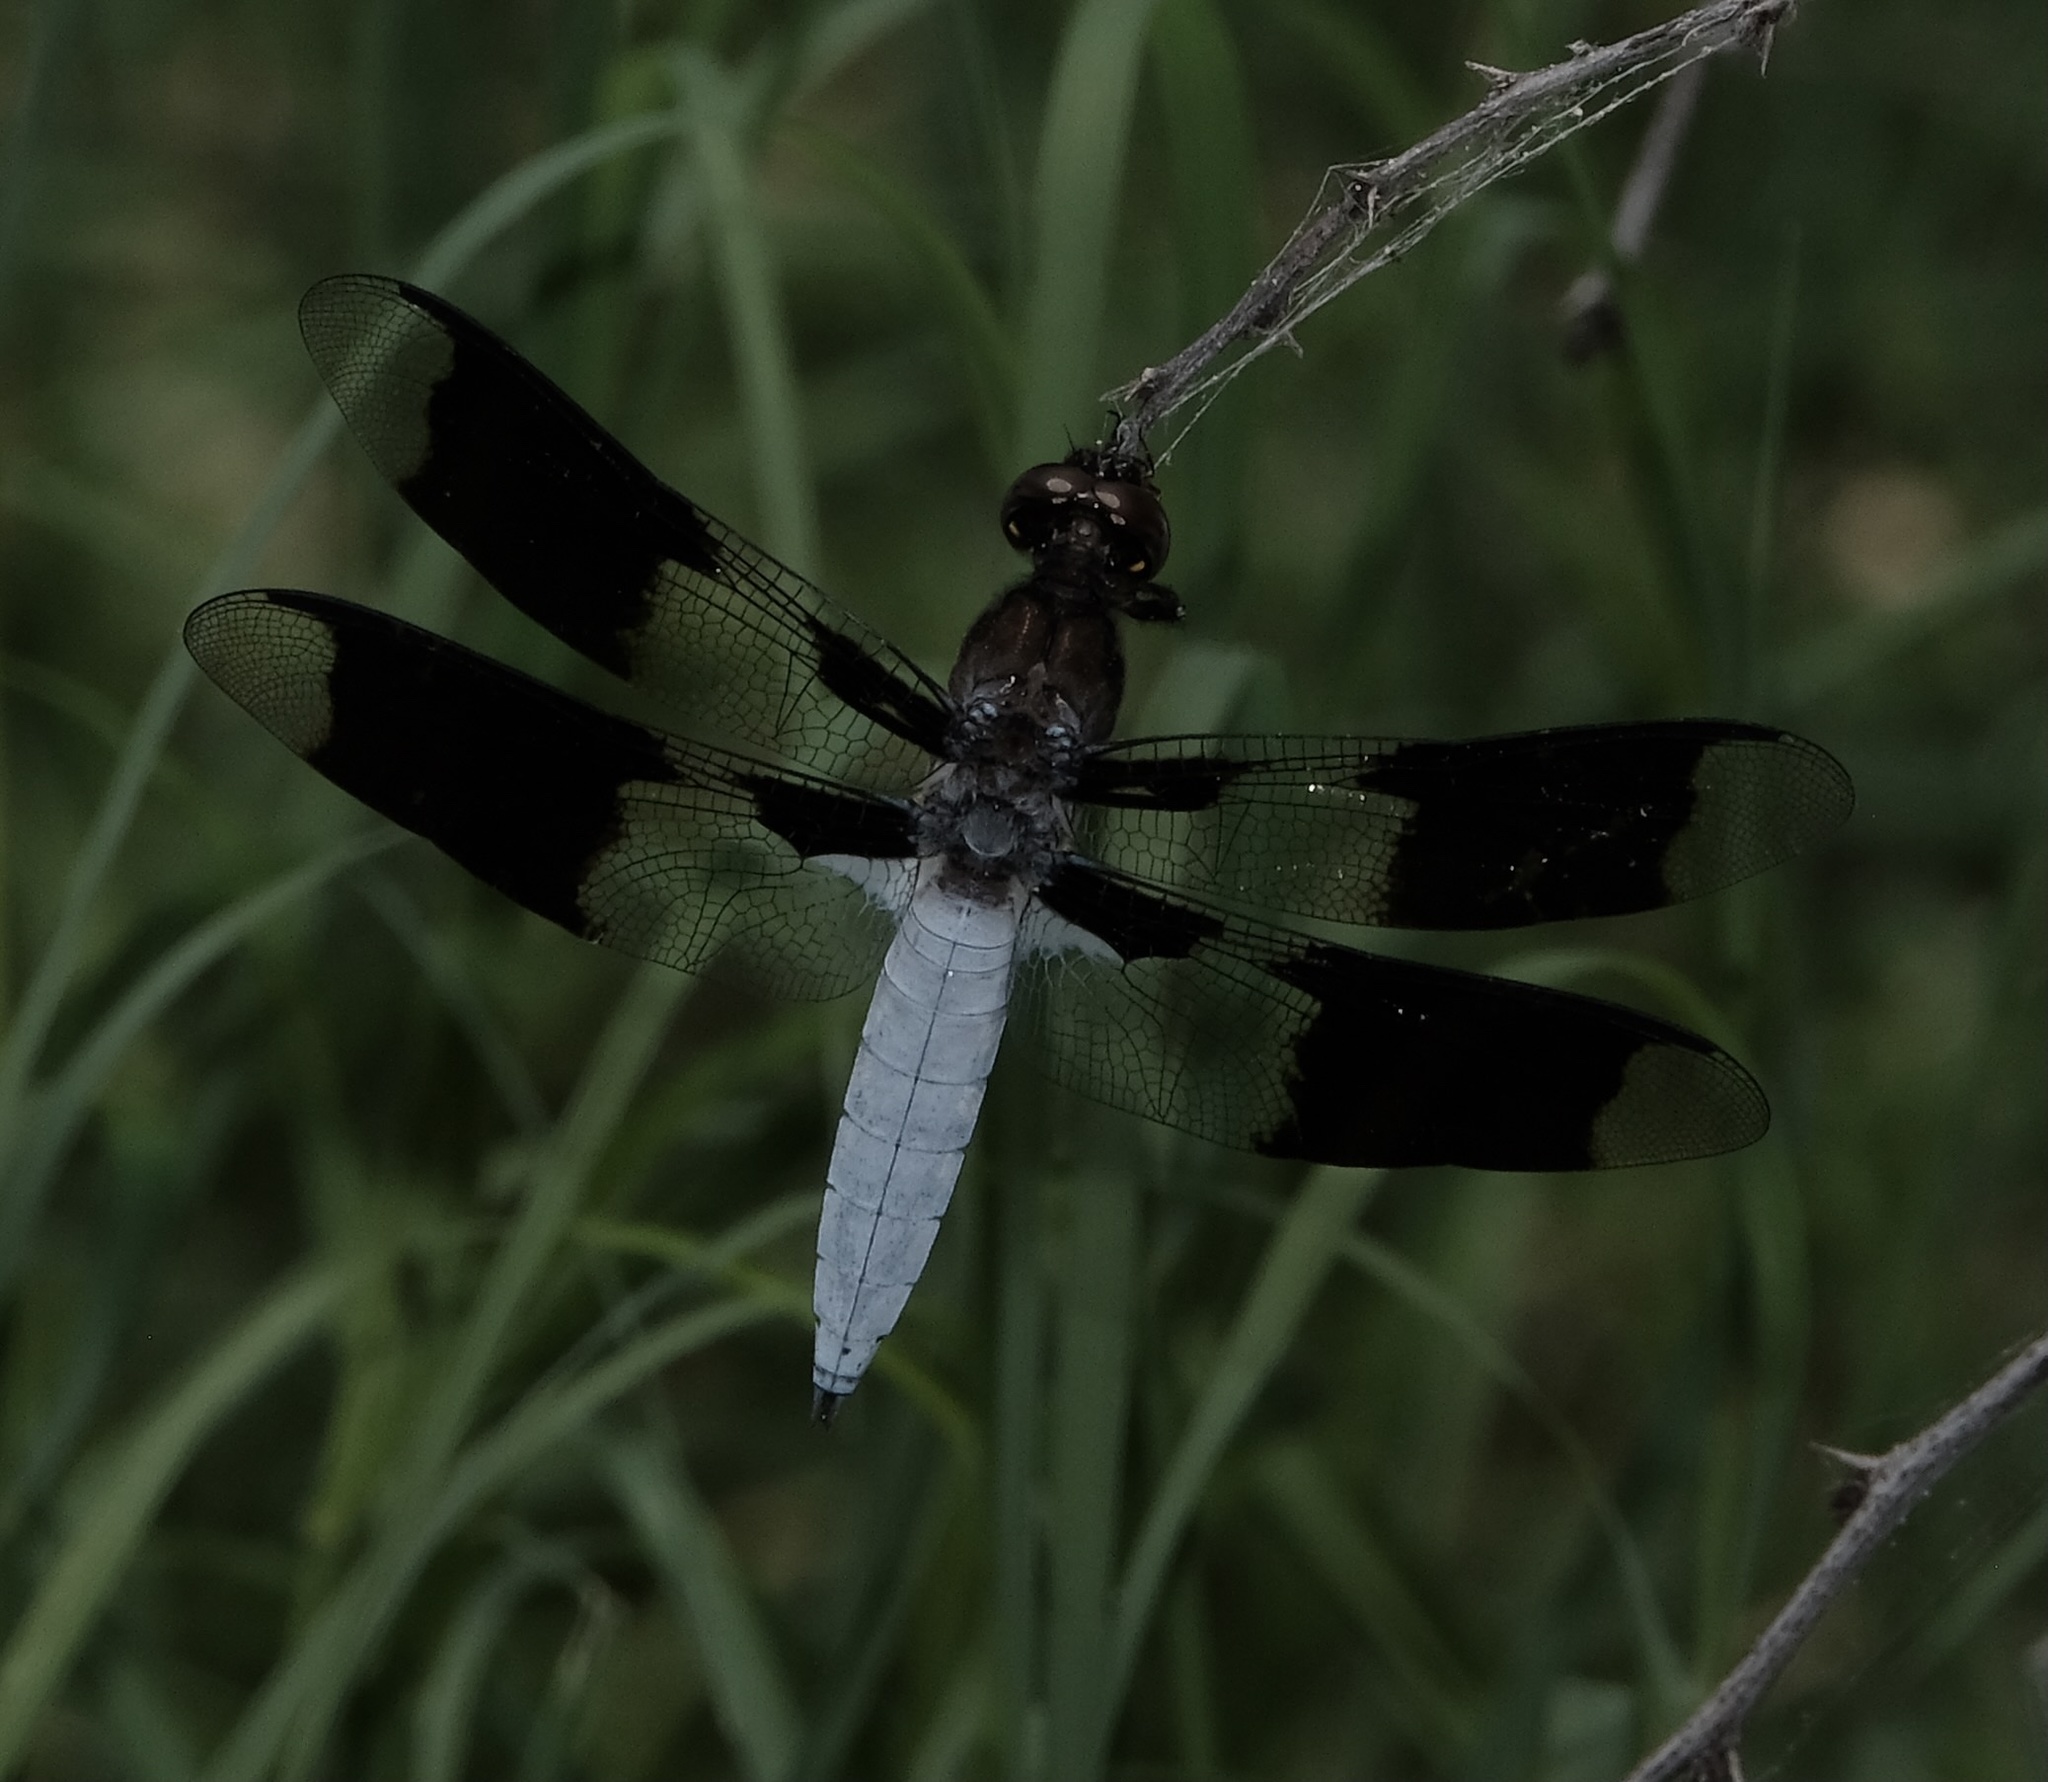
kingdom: Animalia
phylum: Arthropoda
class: Insecta
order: Odonata
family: Libellulidae
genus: Plathemis
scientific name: Plathemis lydia
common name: Common whitetail
